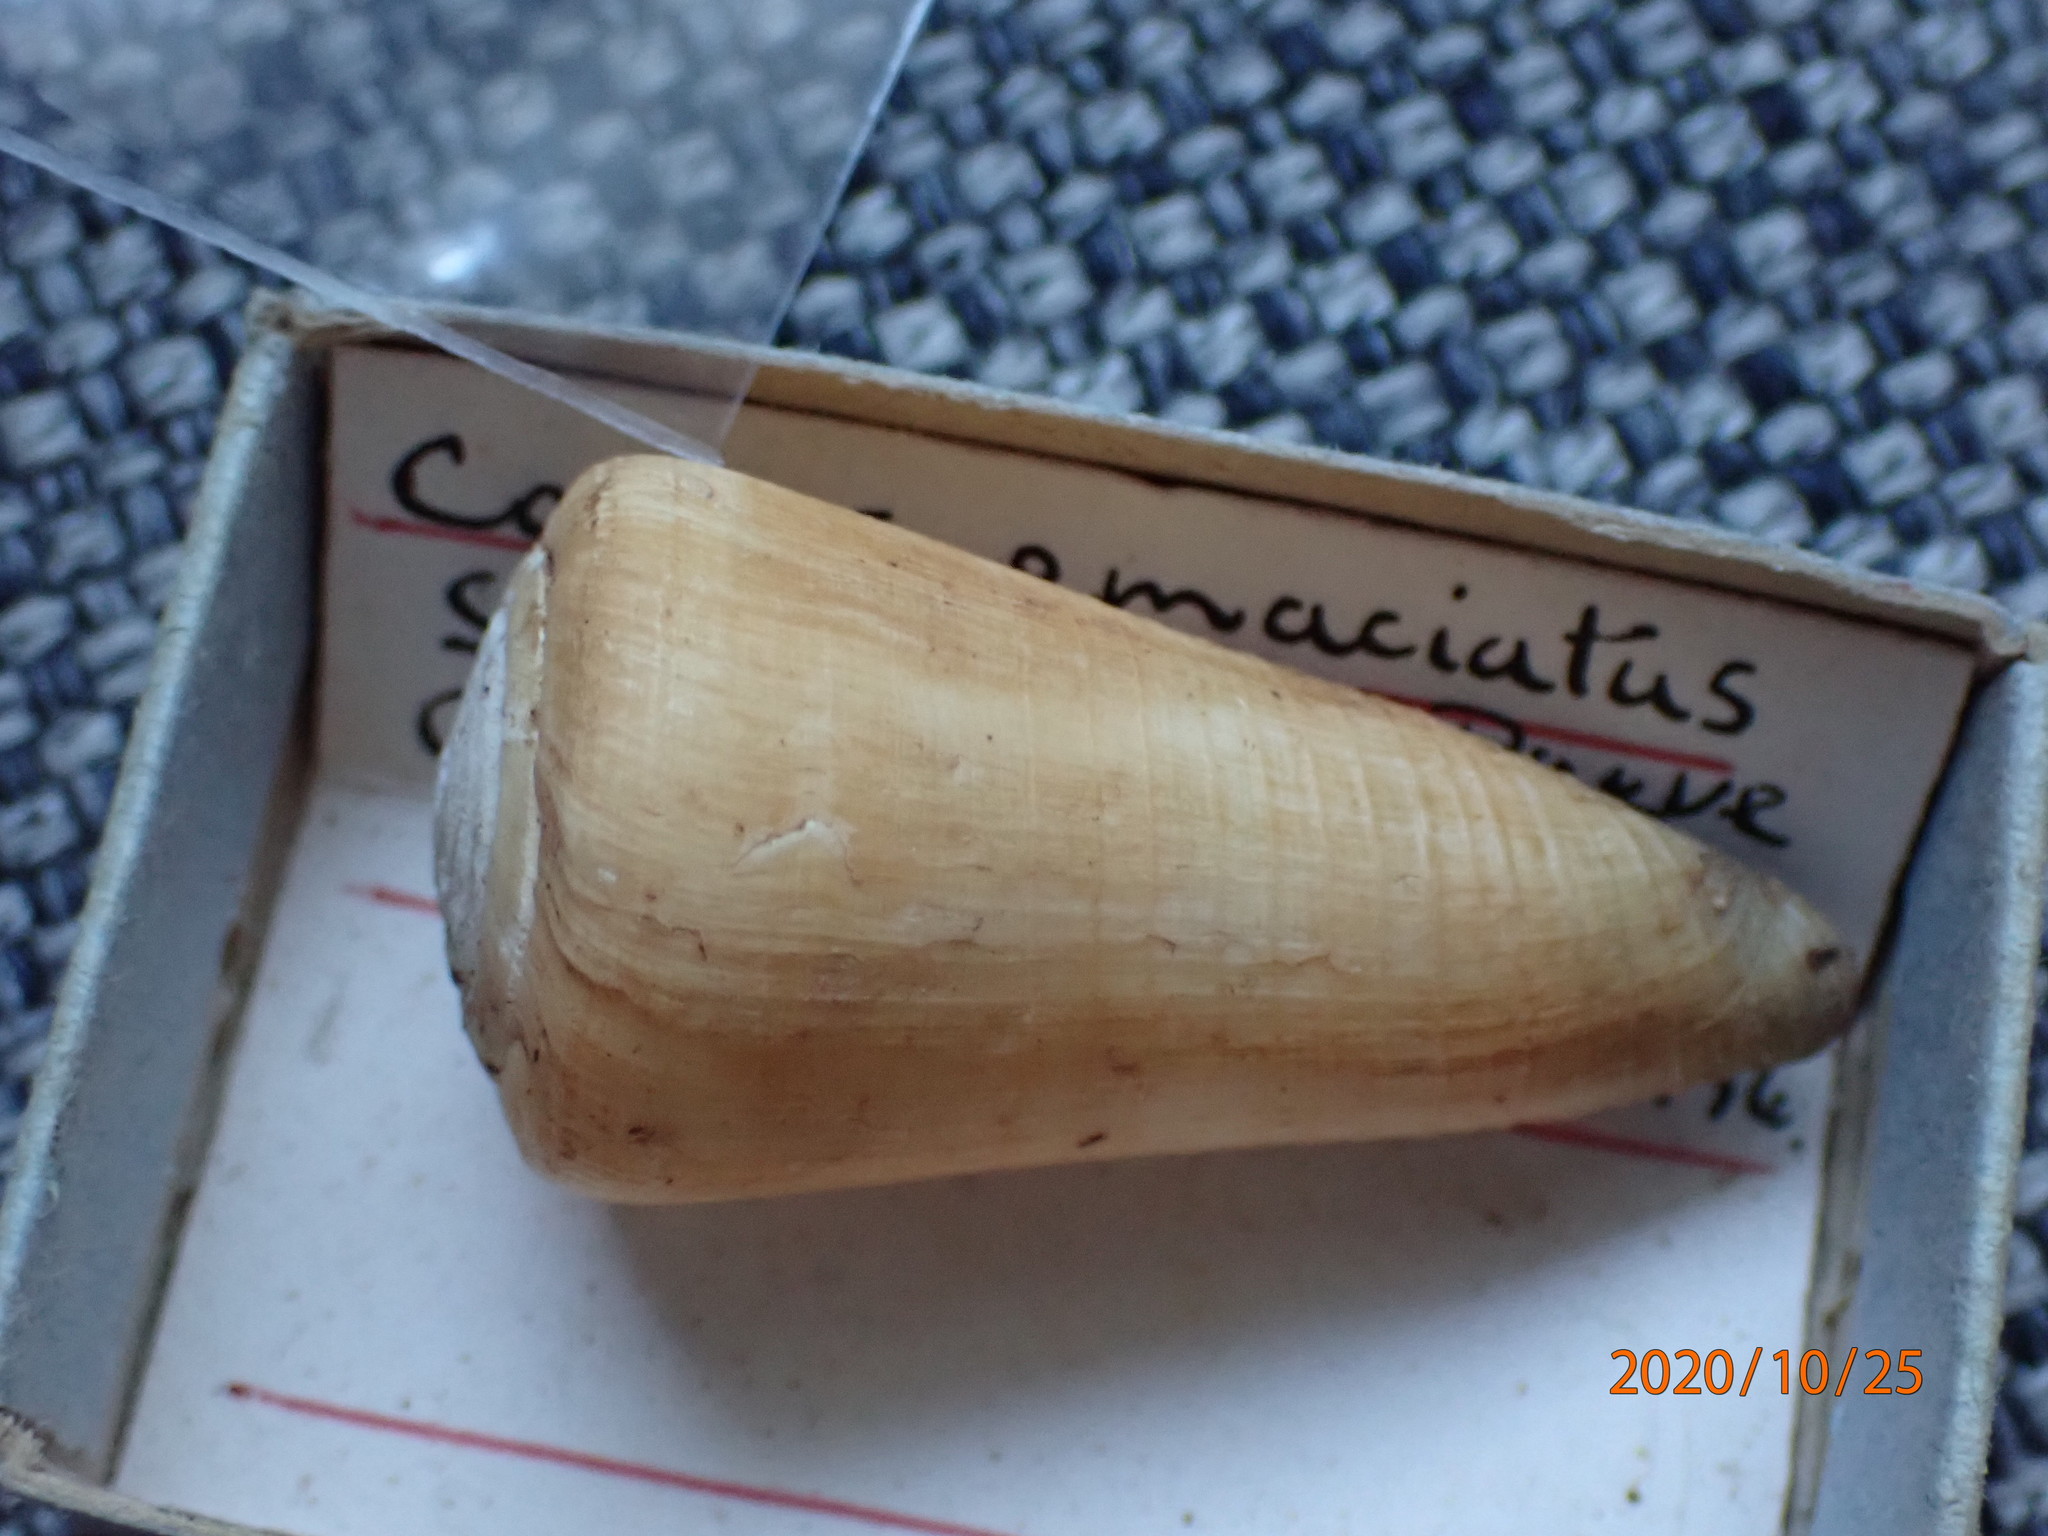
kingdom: Animalia
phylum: Mollusca
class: Gastropoda
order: Neogastropoda
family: Conidae
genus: Conus
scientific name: Conus emaciatus
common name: False virgin cone
